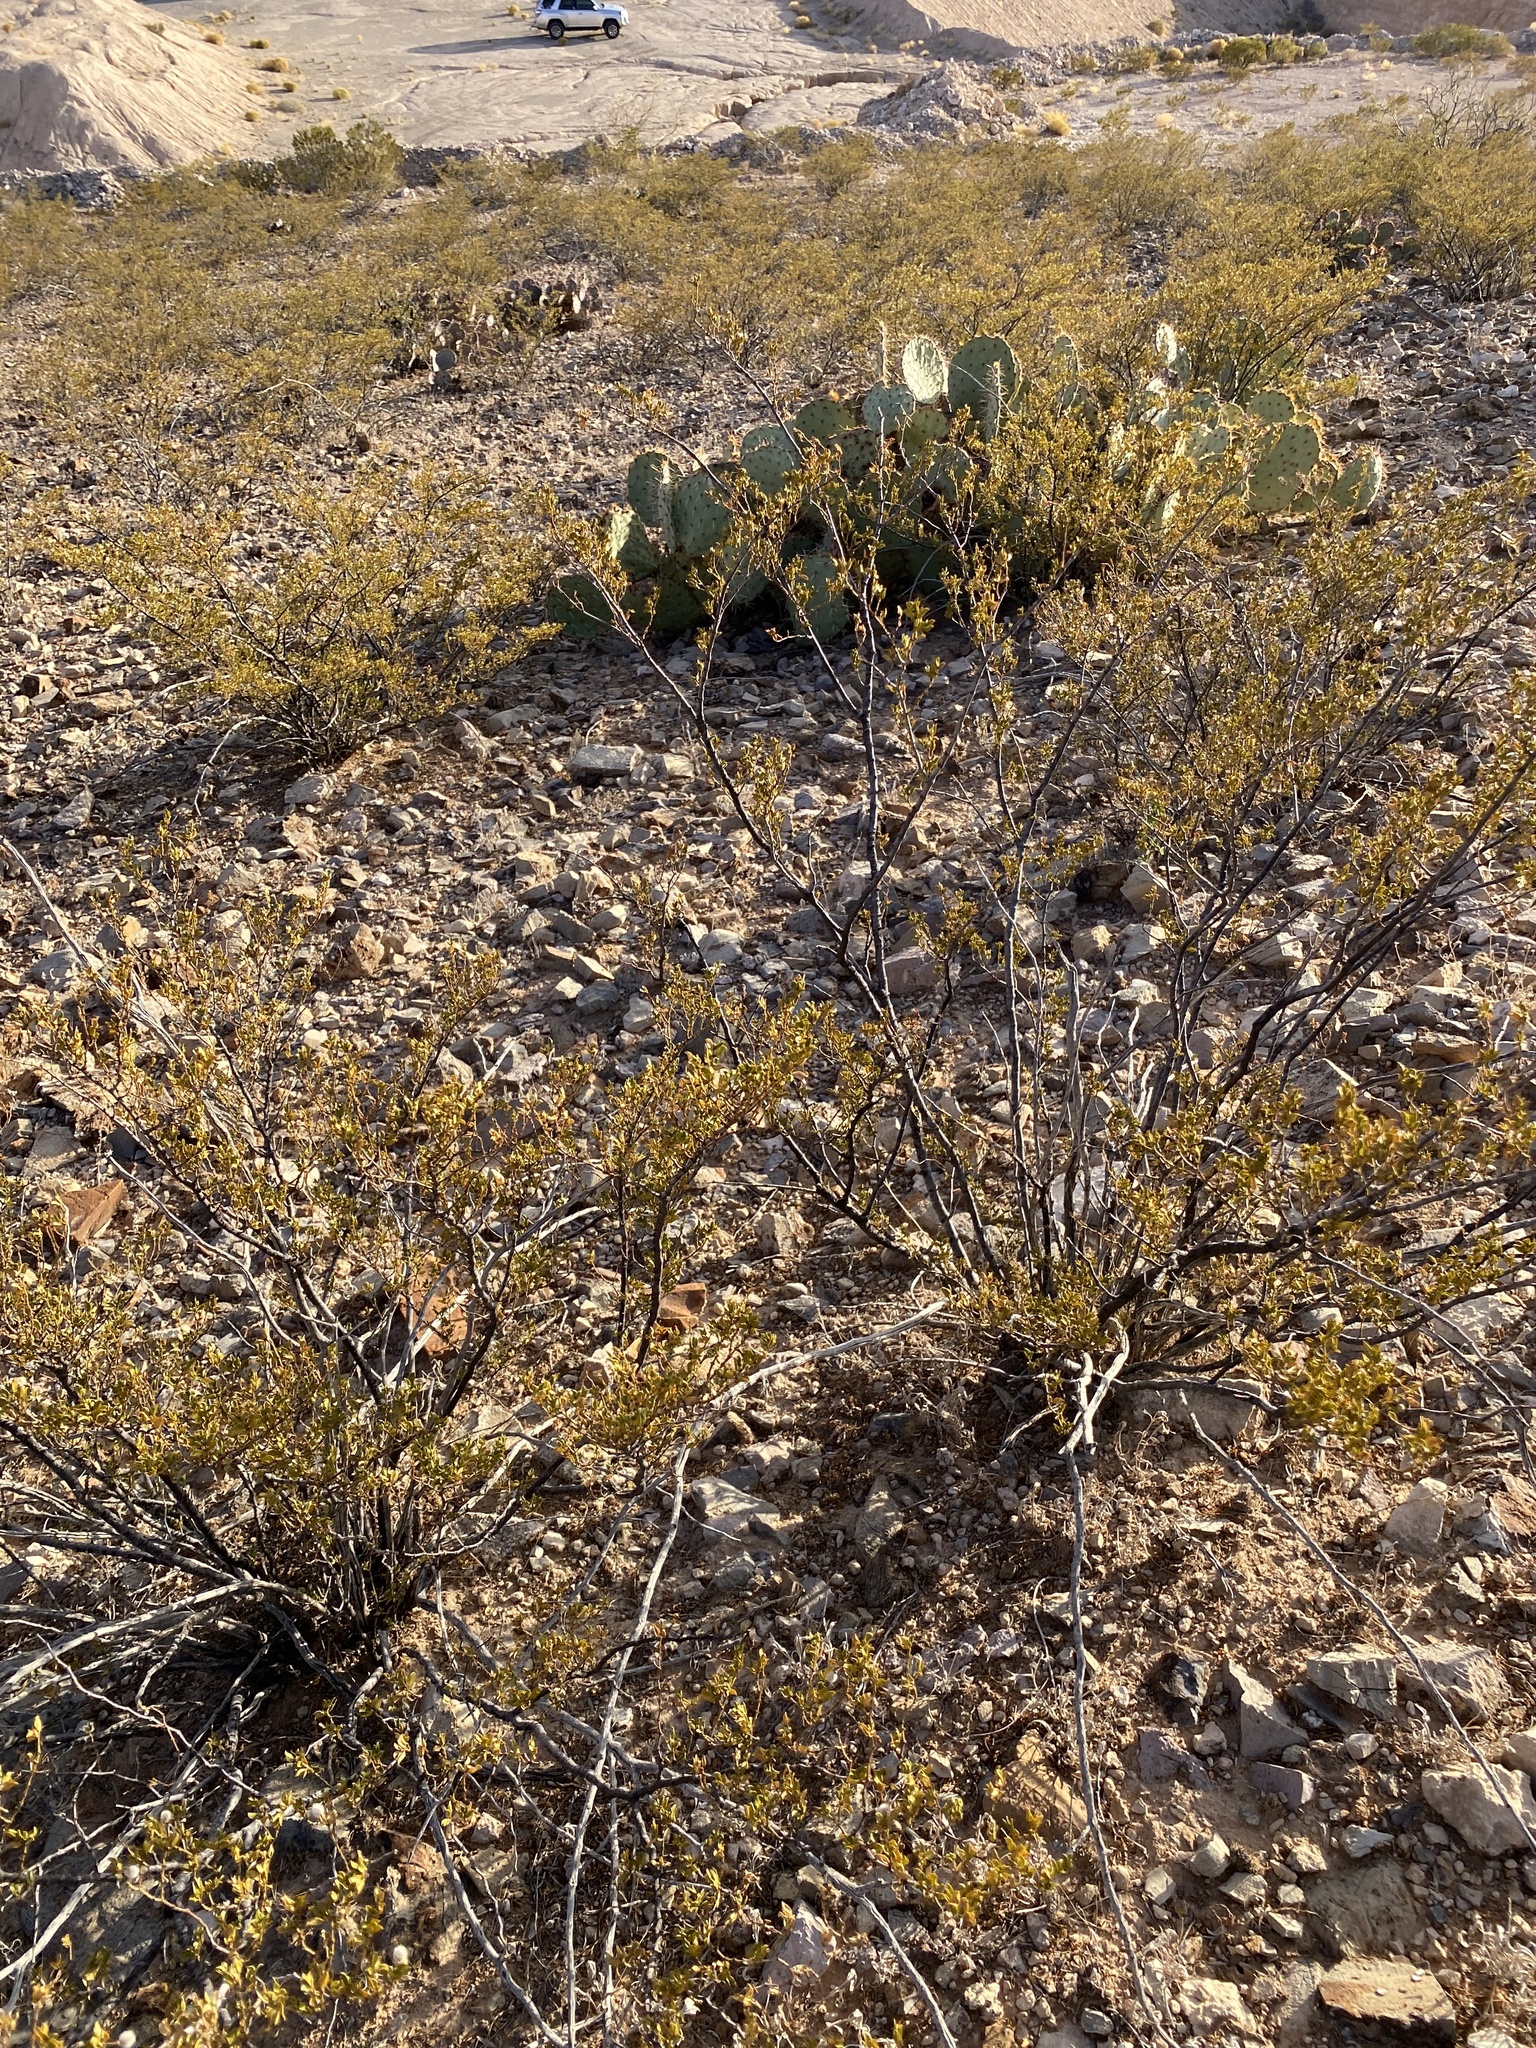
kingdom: Plantae
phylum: Tracheophyta
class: Magnoliopsida
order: Zygophyllales
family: Zygophyllaceae
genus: Larrea
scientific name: Larrea tridentata
